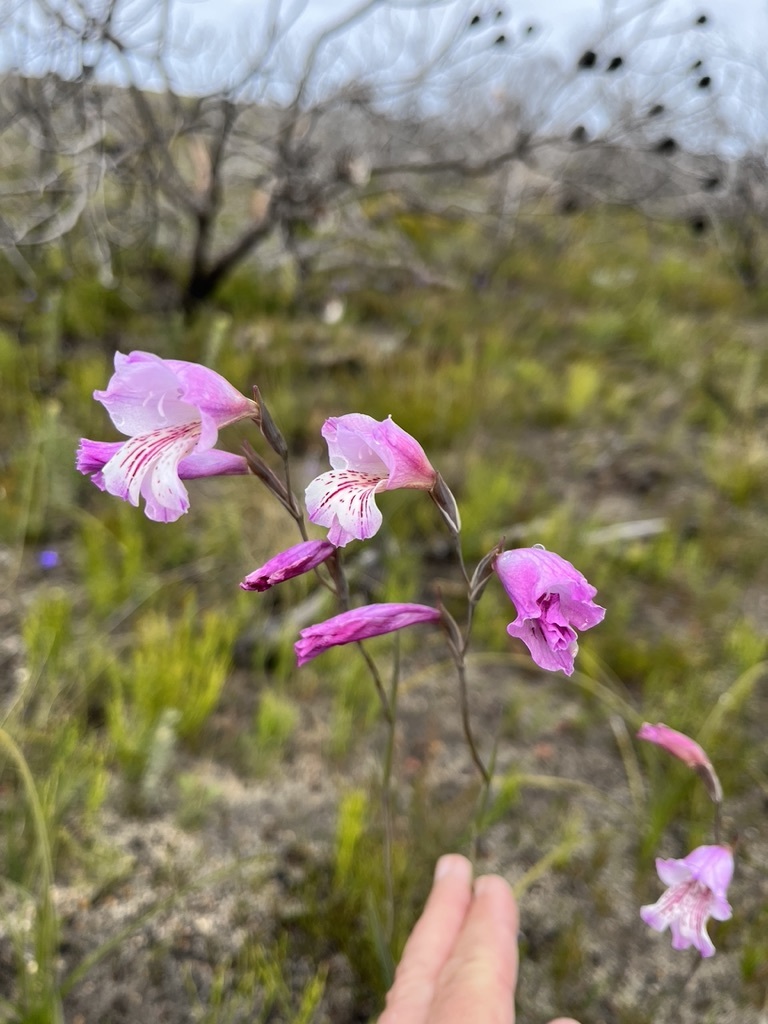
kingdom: Plantae
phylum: Tracheophyta
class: Liliopsida
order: Asparagales
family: Iridaceae
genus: Gladiolus
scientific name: Gladiolus hirsutus
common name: Small pink afrikaner
